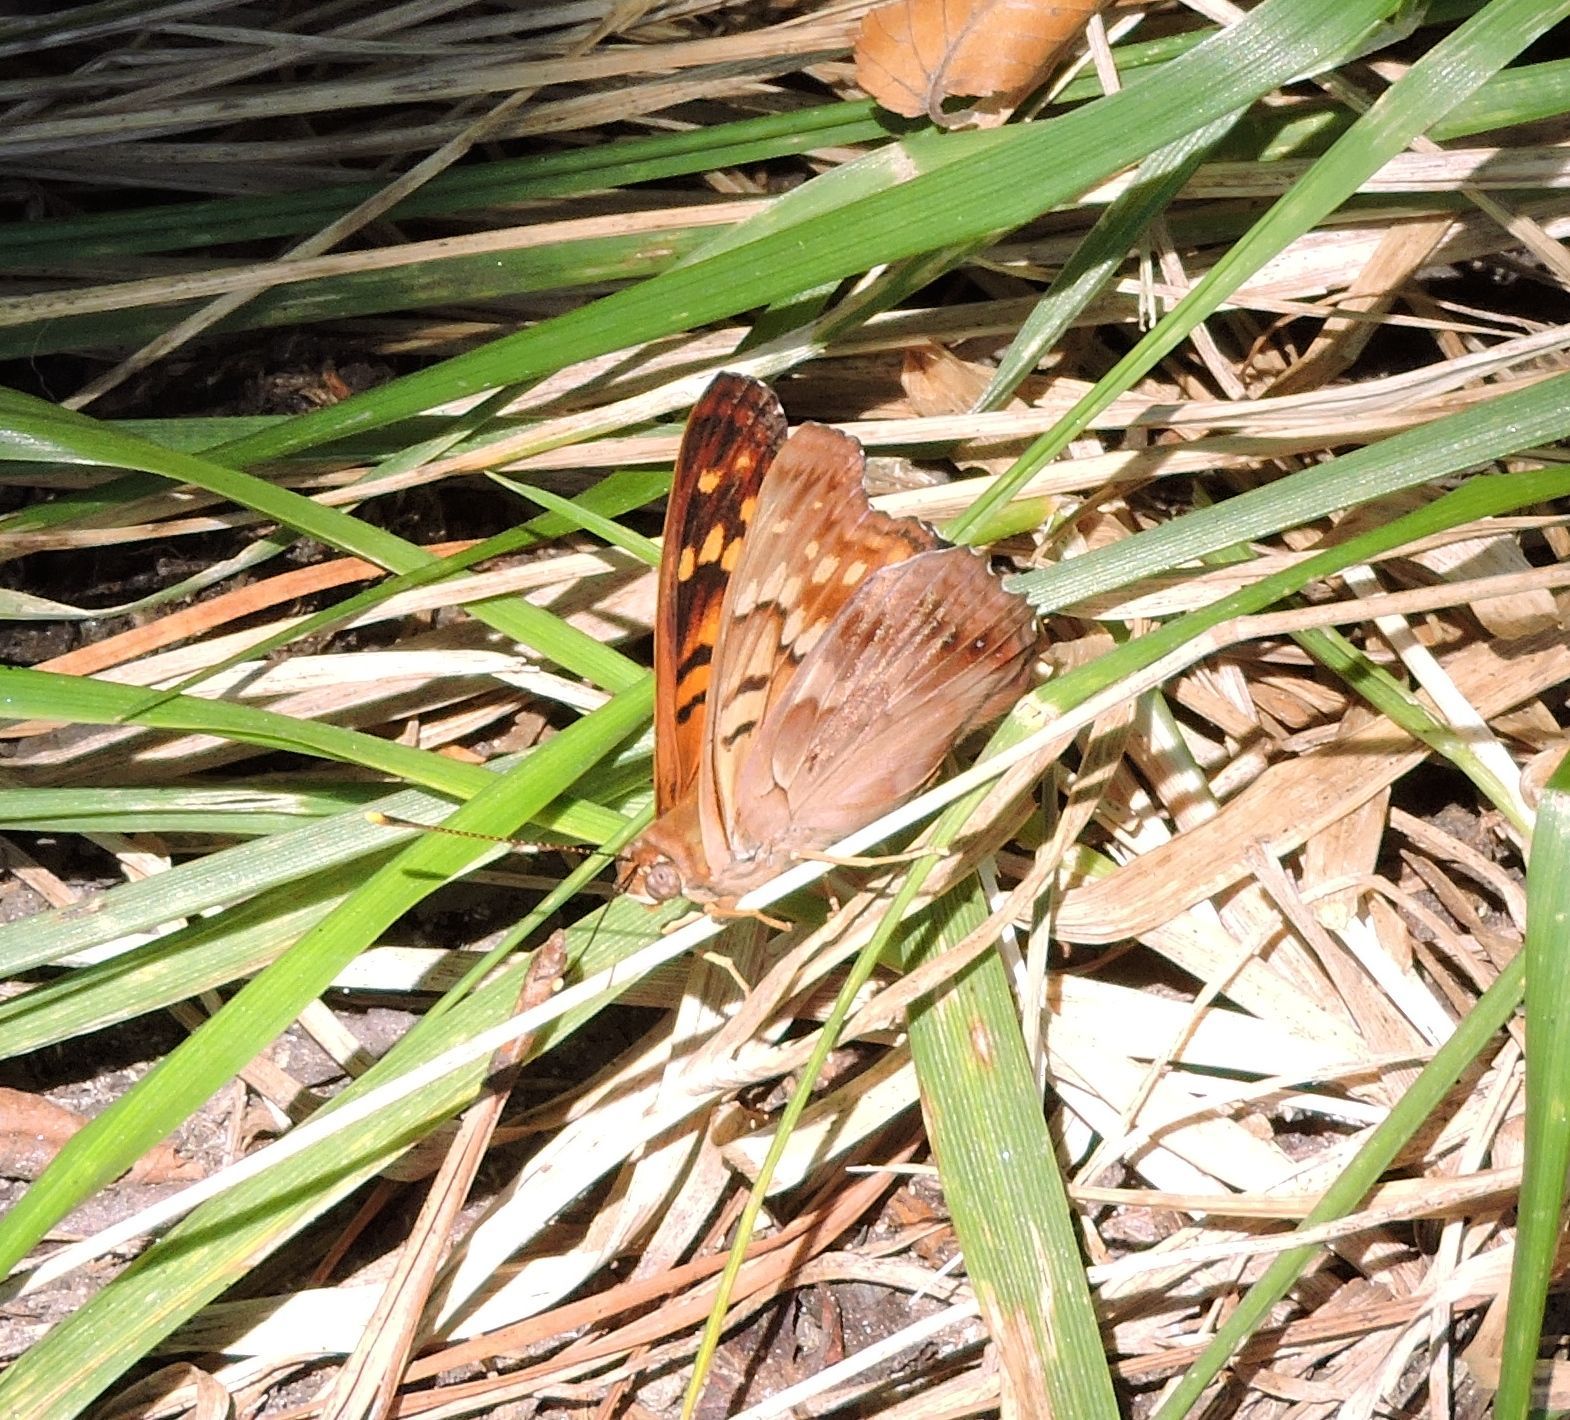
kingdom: Animalia
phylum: Arthropoda
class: Insecta
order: Lepidoptera
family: Nymphalidae
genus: Asterocampa
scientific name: Asterocampa clyton
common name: Tawny emperor
